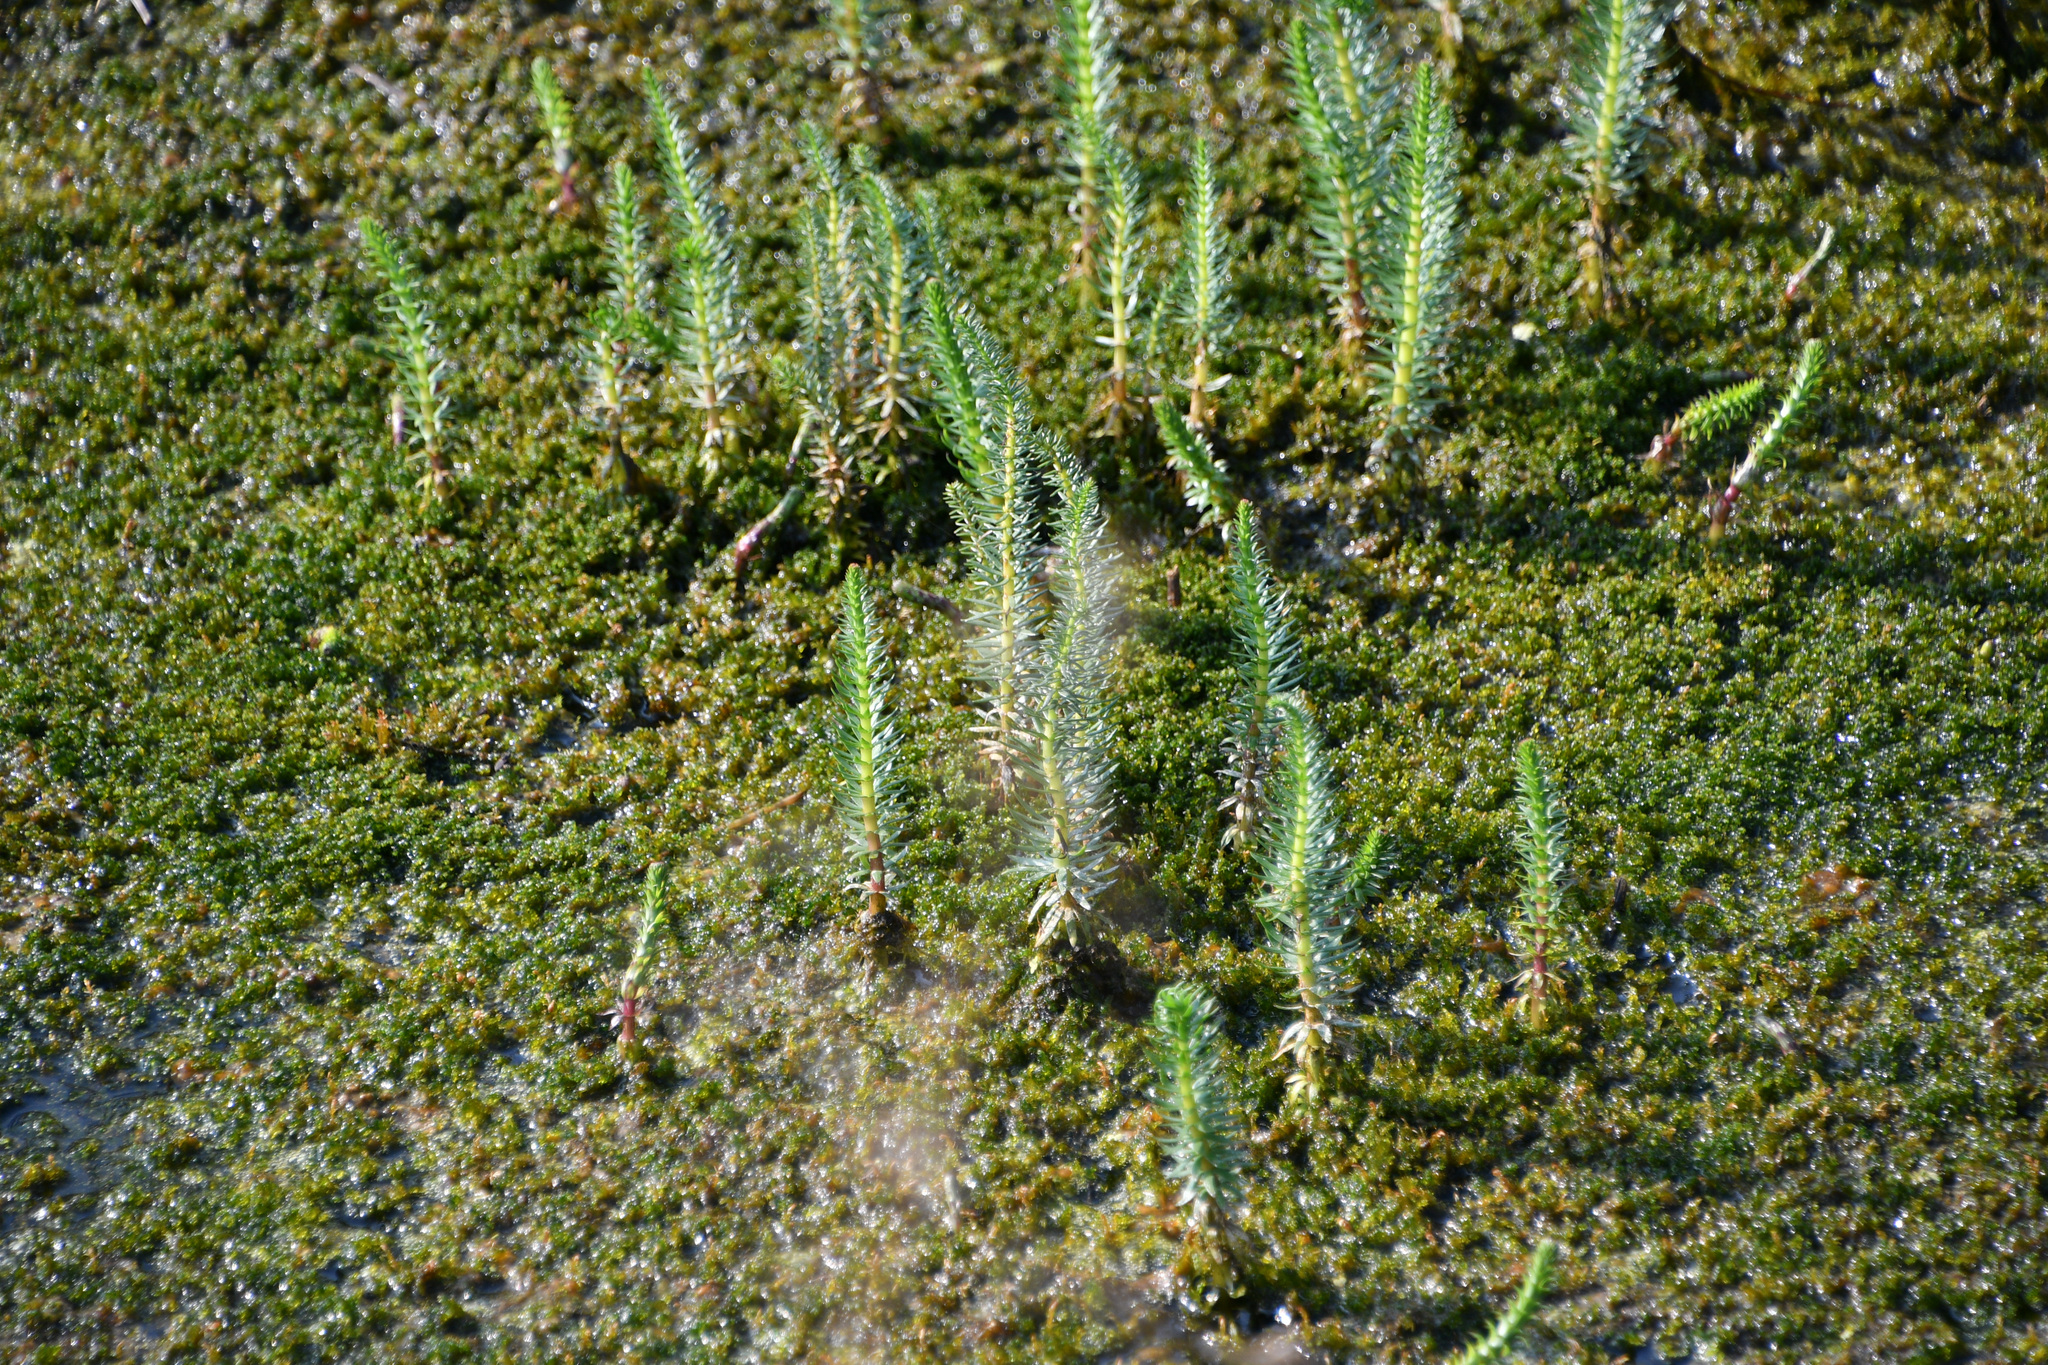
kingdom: Plantae
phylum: Tracheophyta
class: Magnoliopsida
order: Lamiales
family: Plantaginaceae
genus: Hippuris
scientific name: Hippuris vulgaris
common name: Mare's-tail
